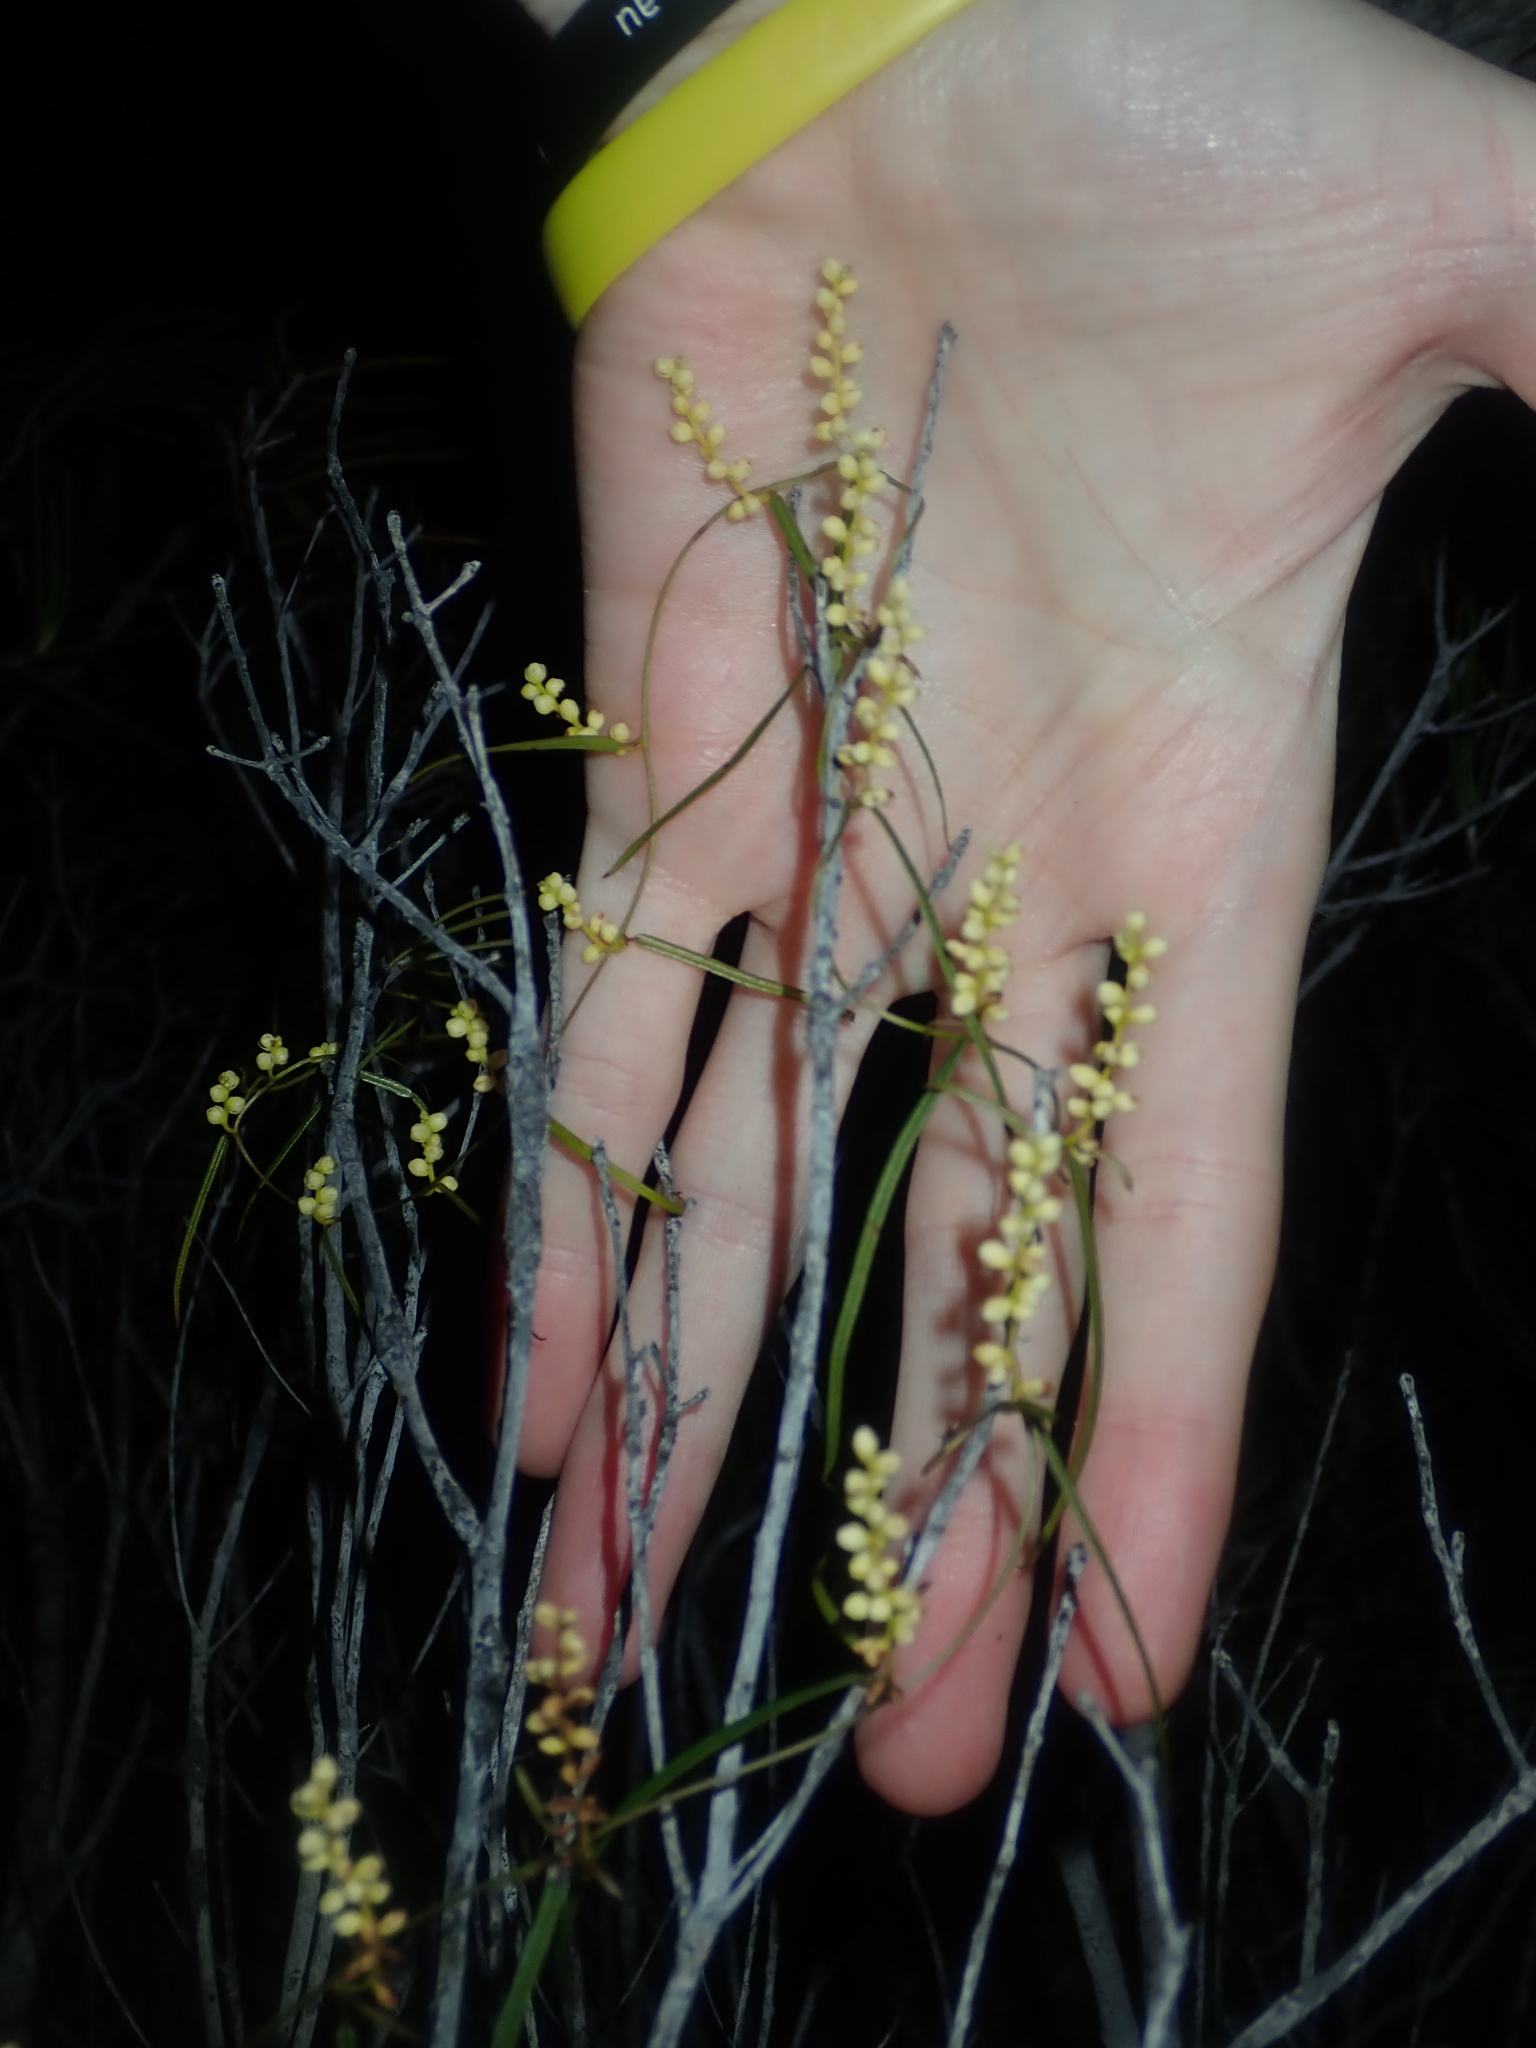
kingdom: Plantae
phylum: Tracheophyta
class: Liliopsida
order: Dioscoreales
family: Dioscoreaceae
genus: Dioscorea
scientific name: Dioscorea hastifolia
